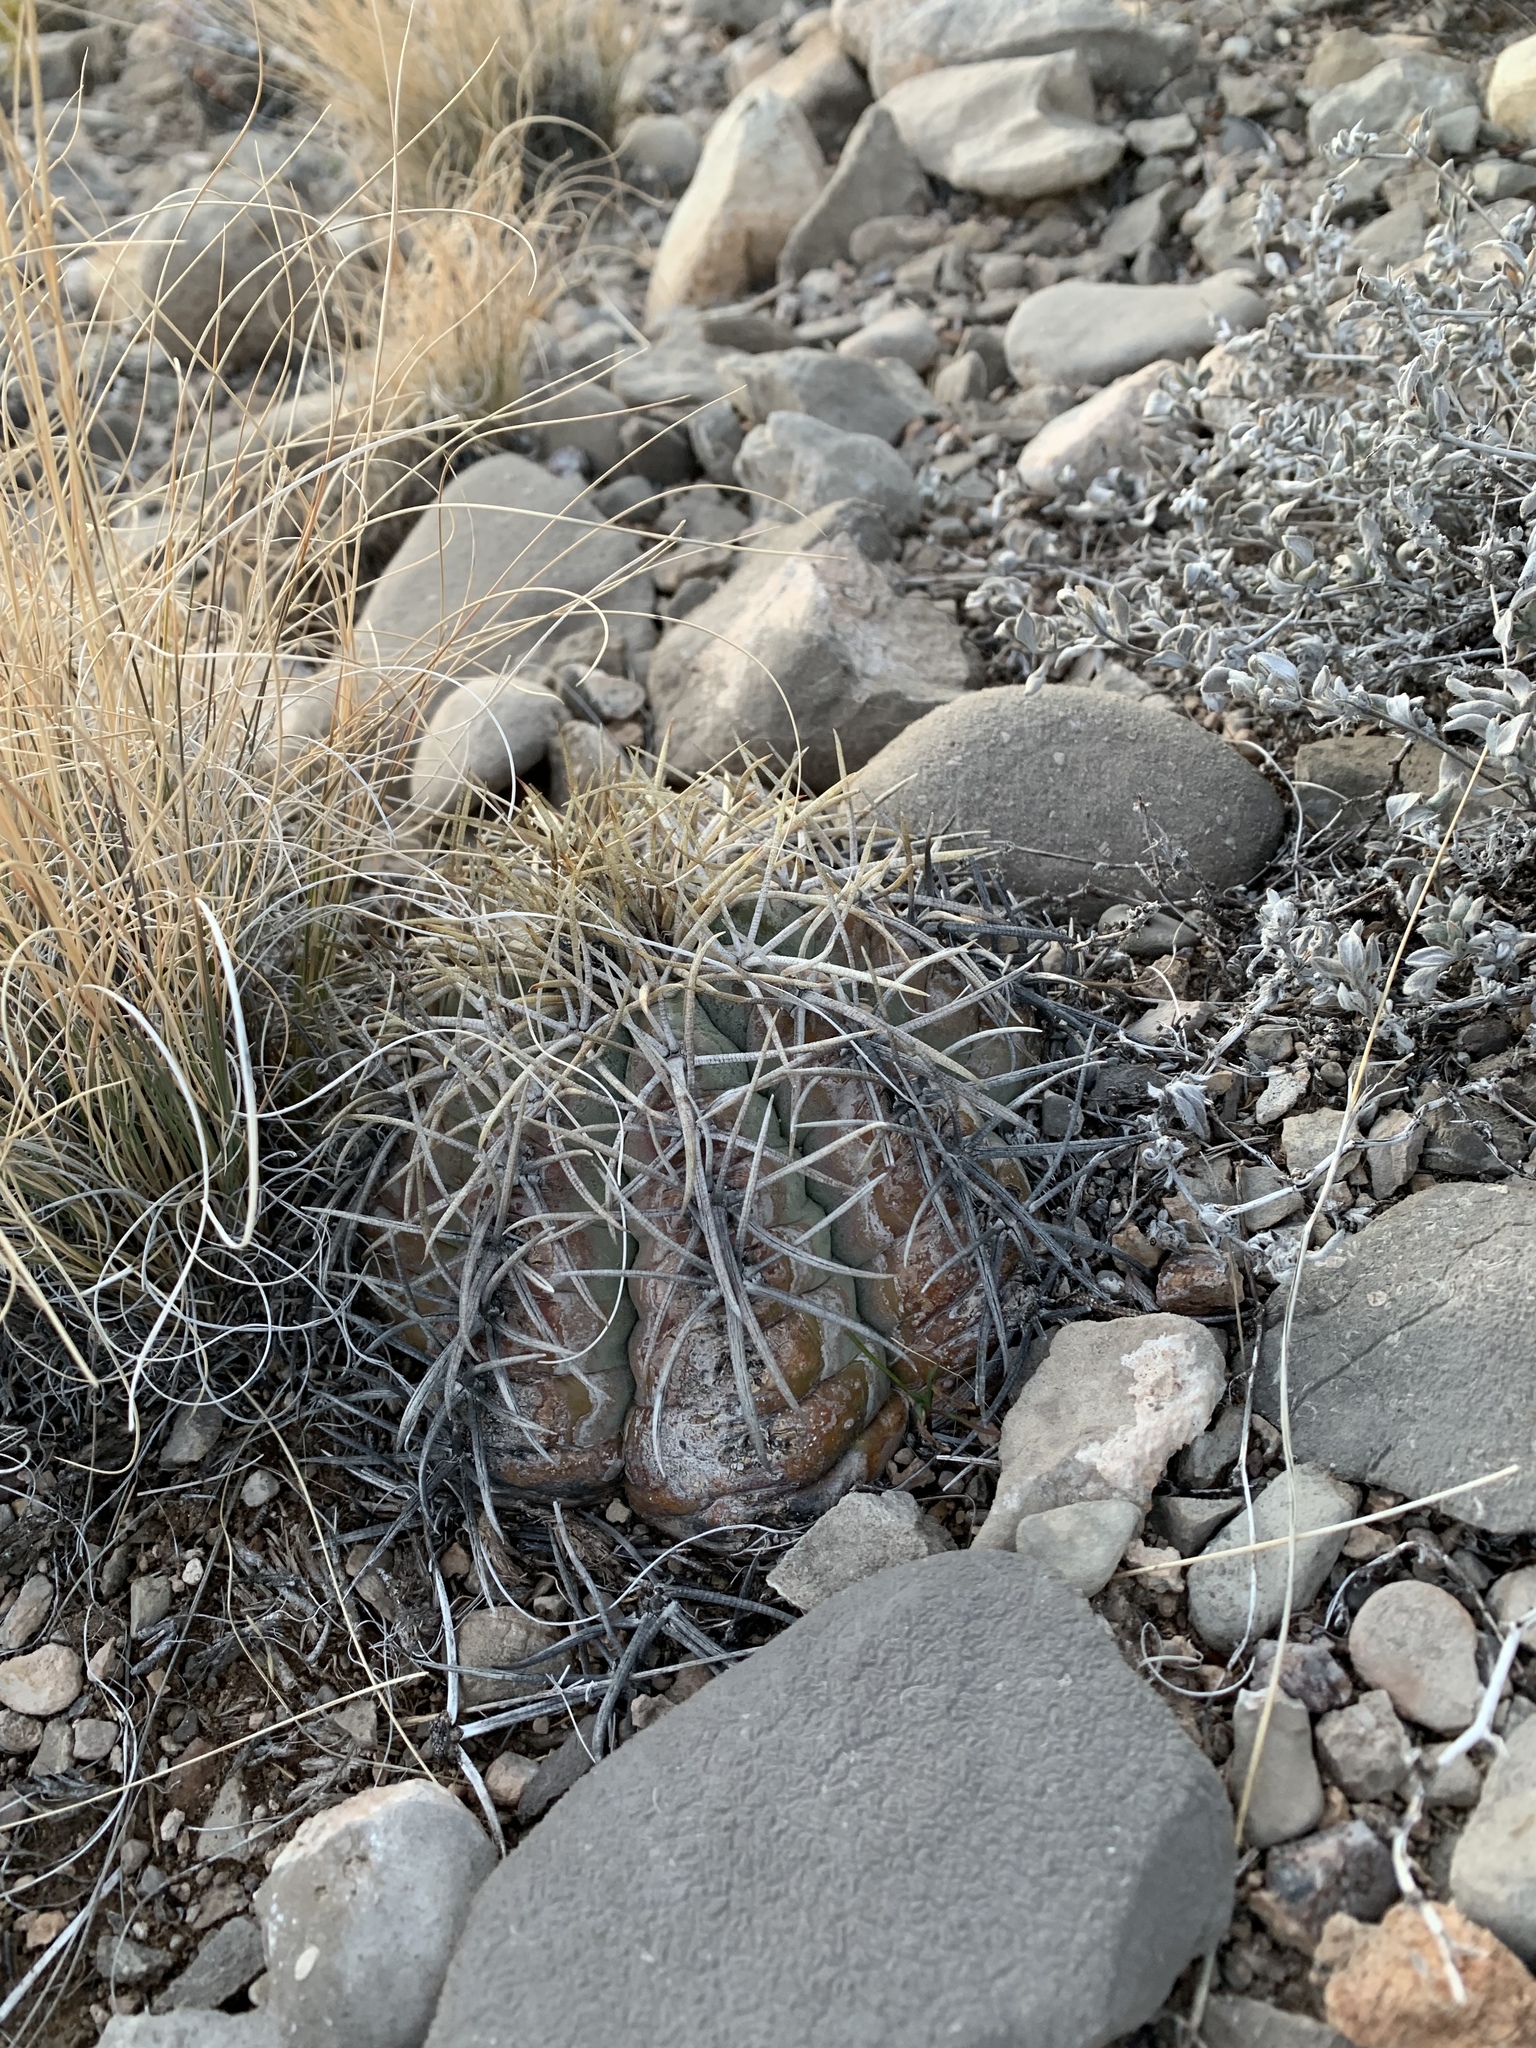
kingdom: Plantae
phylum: Tracheophyta
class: Magnoliopsida
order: Caryophyllales
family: Cactaceae
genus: Echinocactus
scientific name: Echinocactus horizonthalonius
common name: Devilshead
